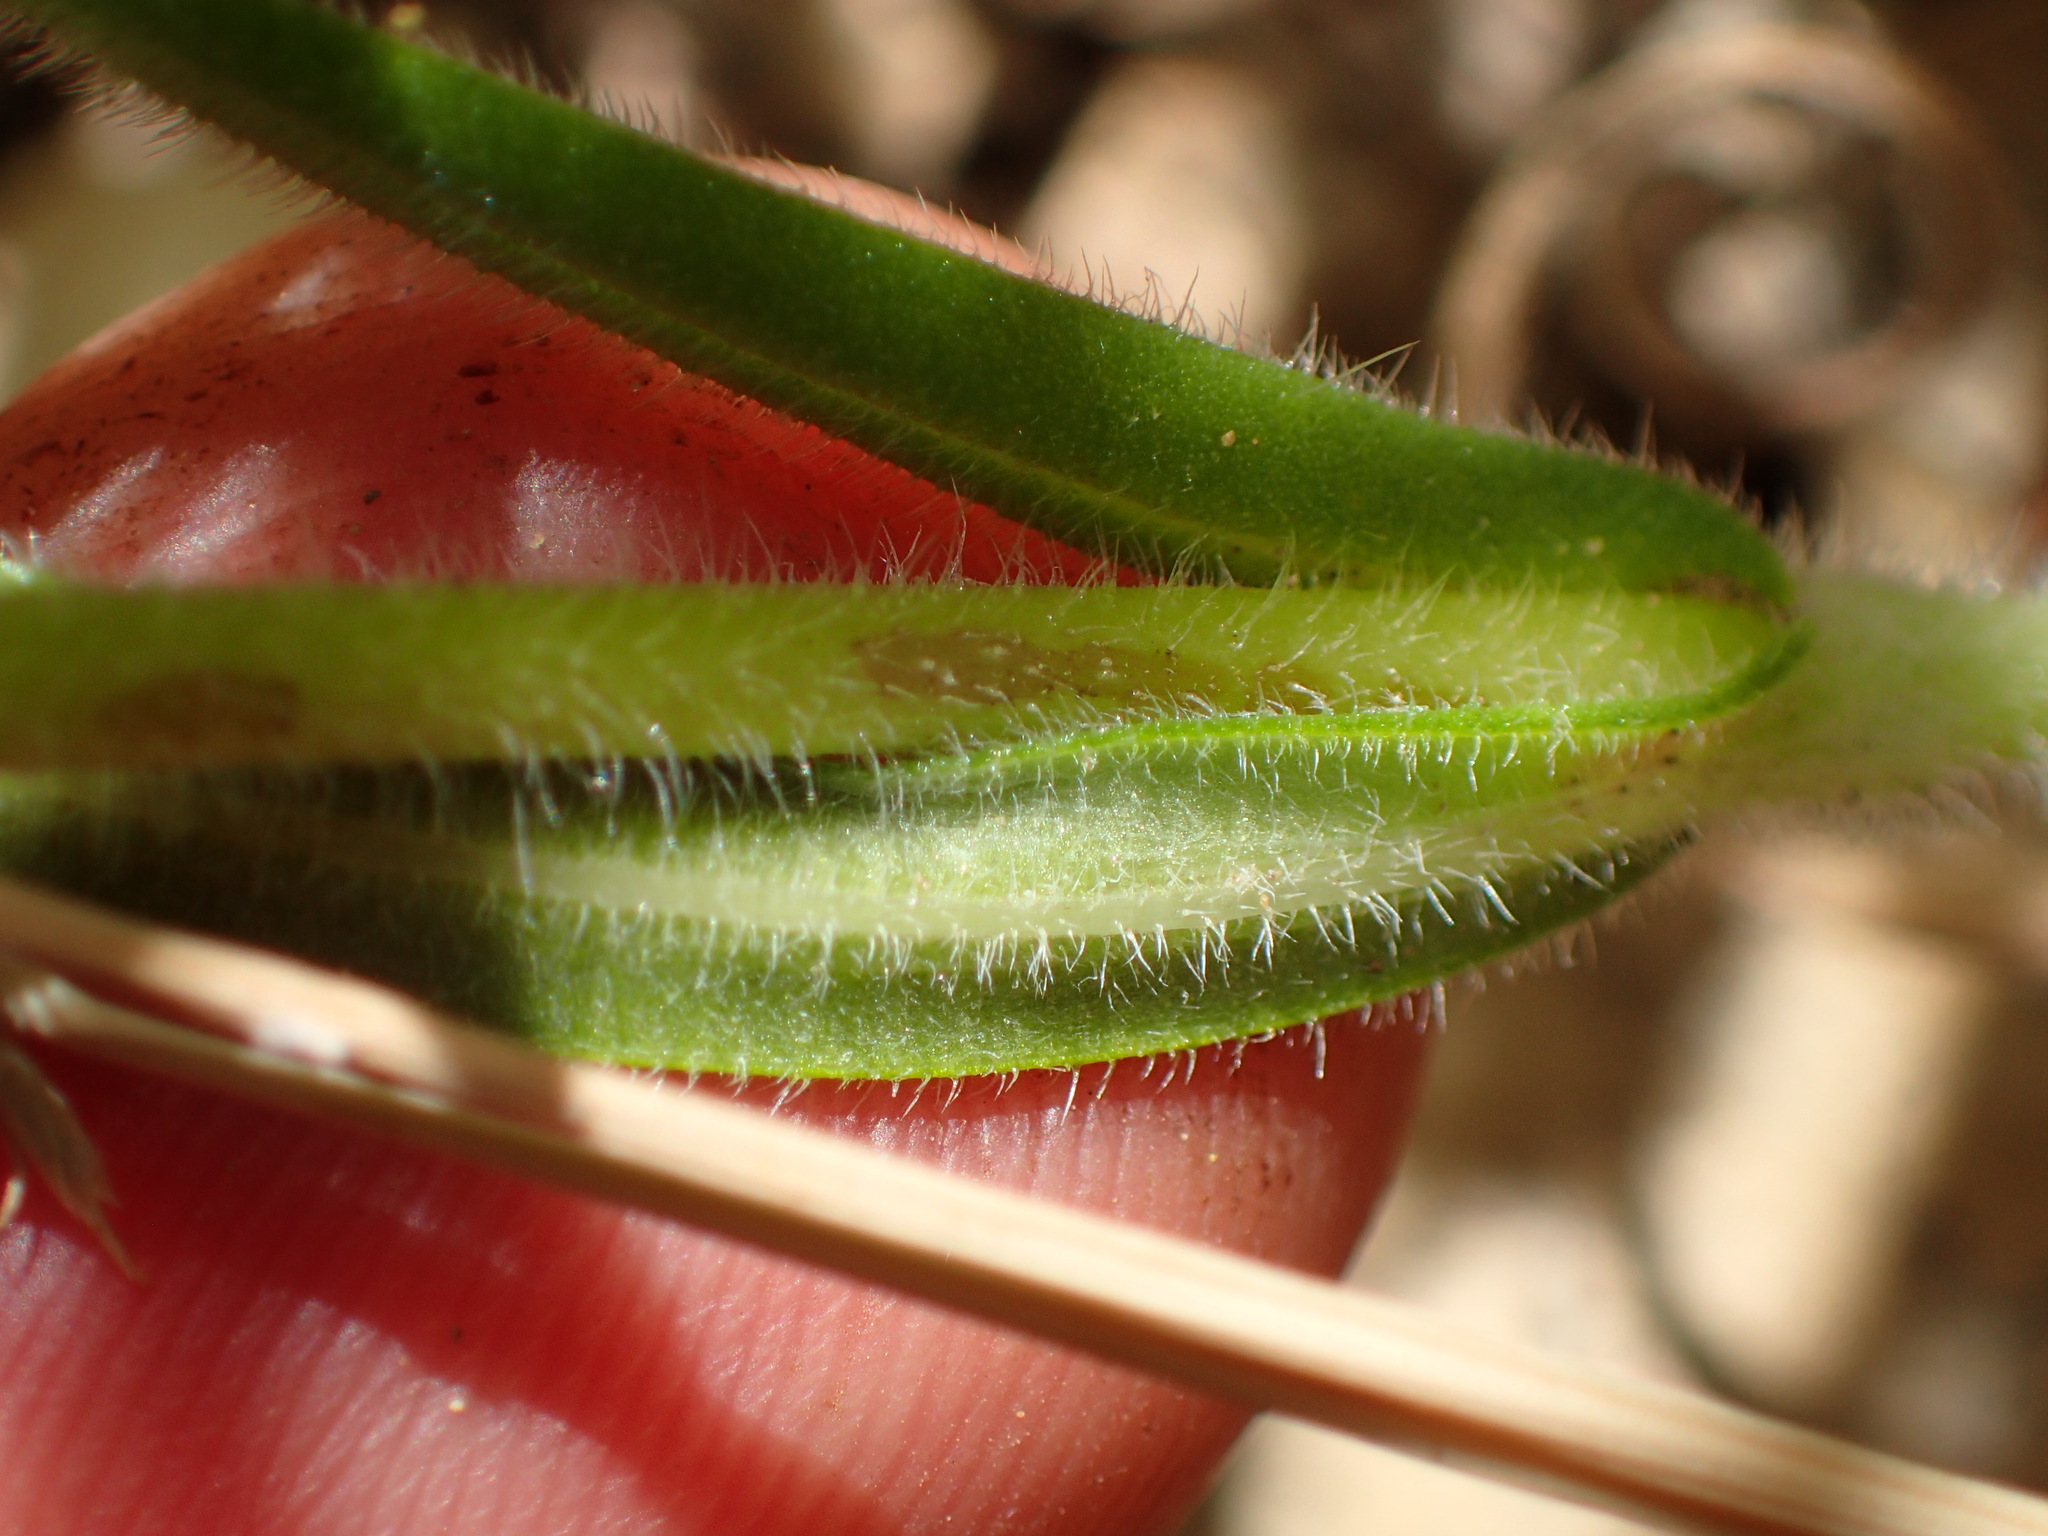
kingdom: Plantae
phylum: Tracheophyta
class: Magnoliopsida
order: Asterales
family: Asteraceae
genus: Madia
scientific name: Madia gracilis
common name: Grassy tarweed
